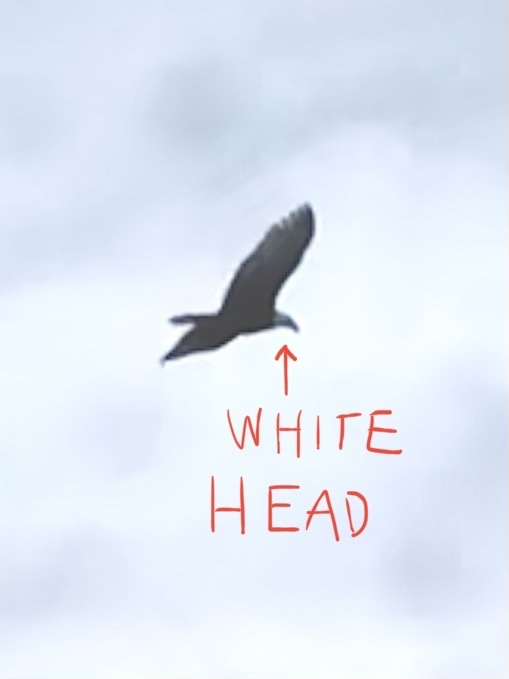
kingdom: Animalia
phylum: Chordata
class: Aves
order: Accipitriformes
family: Accipitridae
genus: Haliaeetus
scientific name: Haliaeetus leucocephalus
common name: Bald eagle
